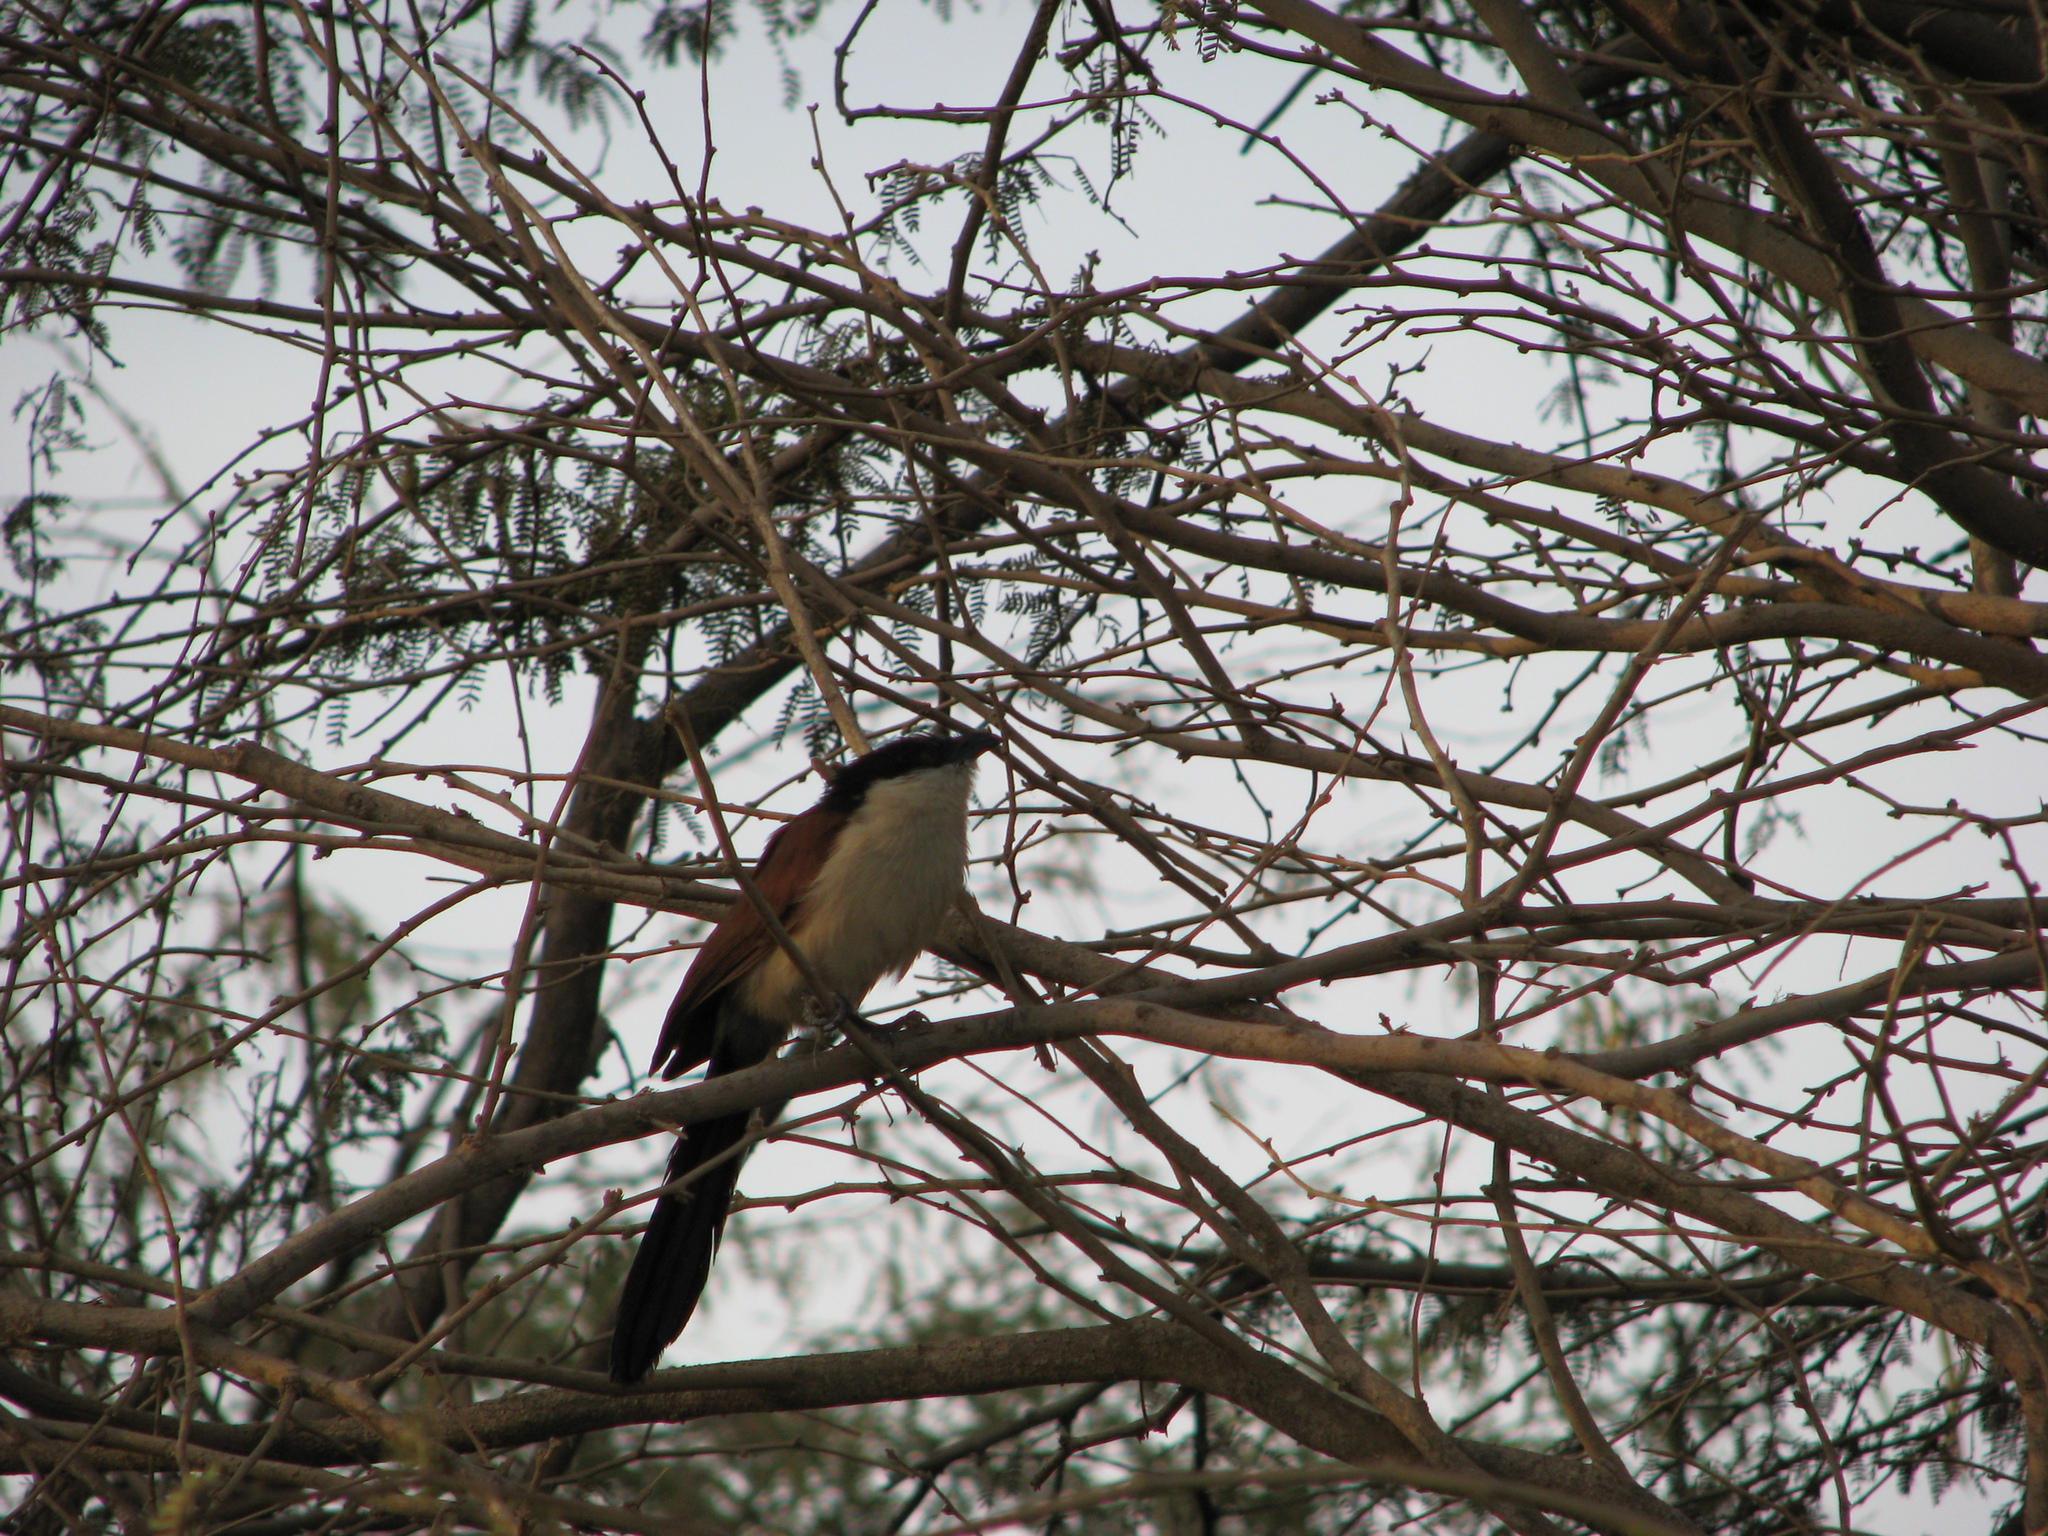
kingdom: Animalia
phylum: Chordata
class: Aves
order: Cuculiformes
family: Cuculidae
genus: Centropus
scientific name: Centropus senegalensis
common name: Senegal coucal
